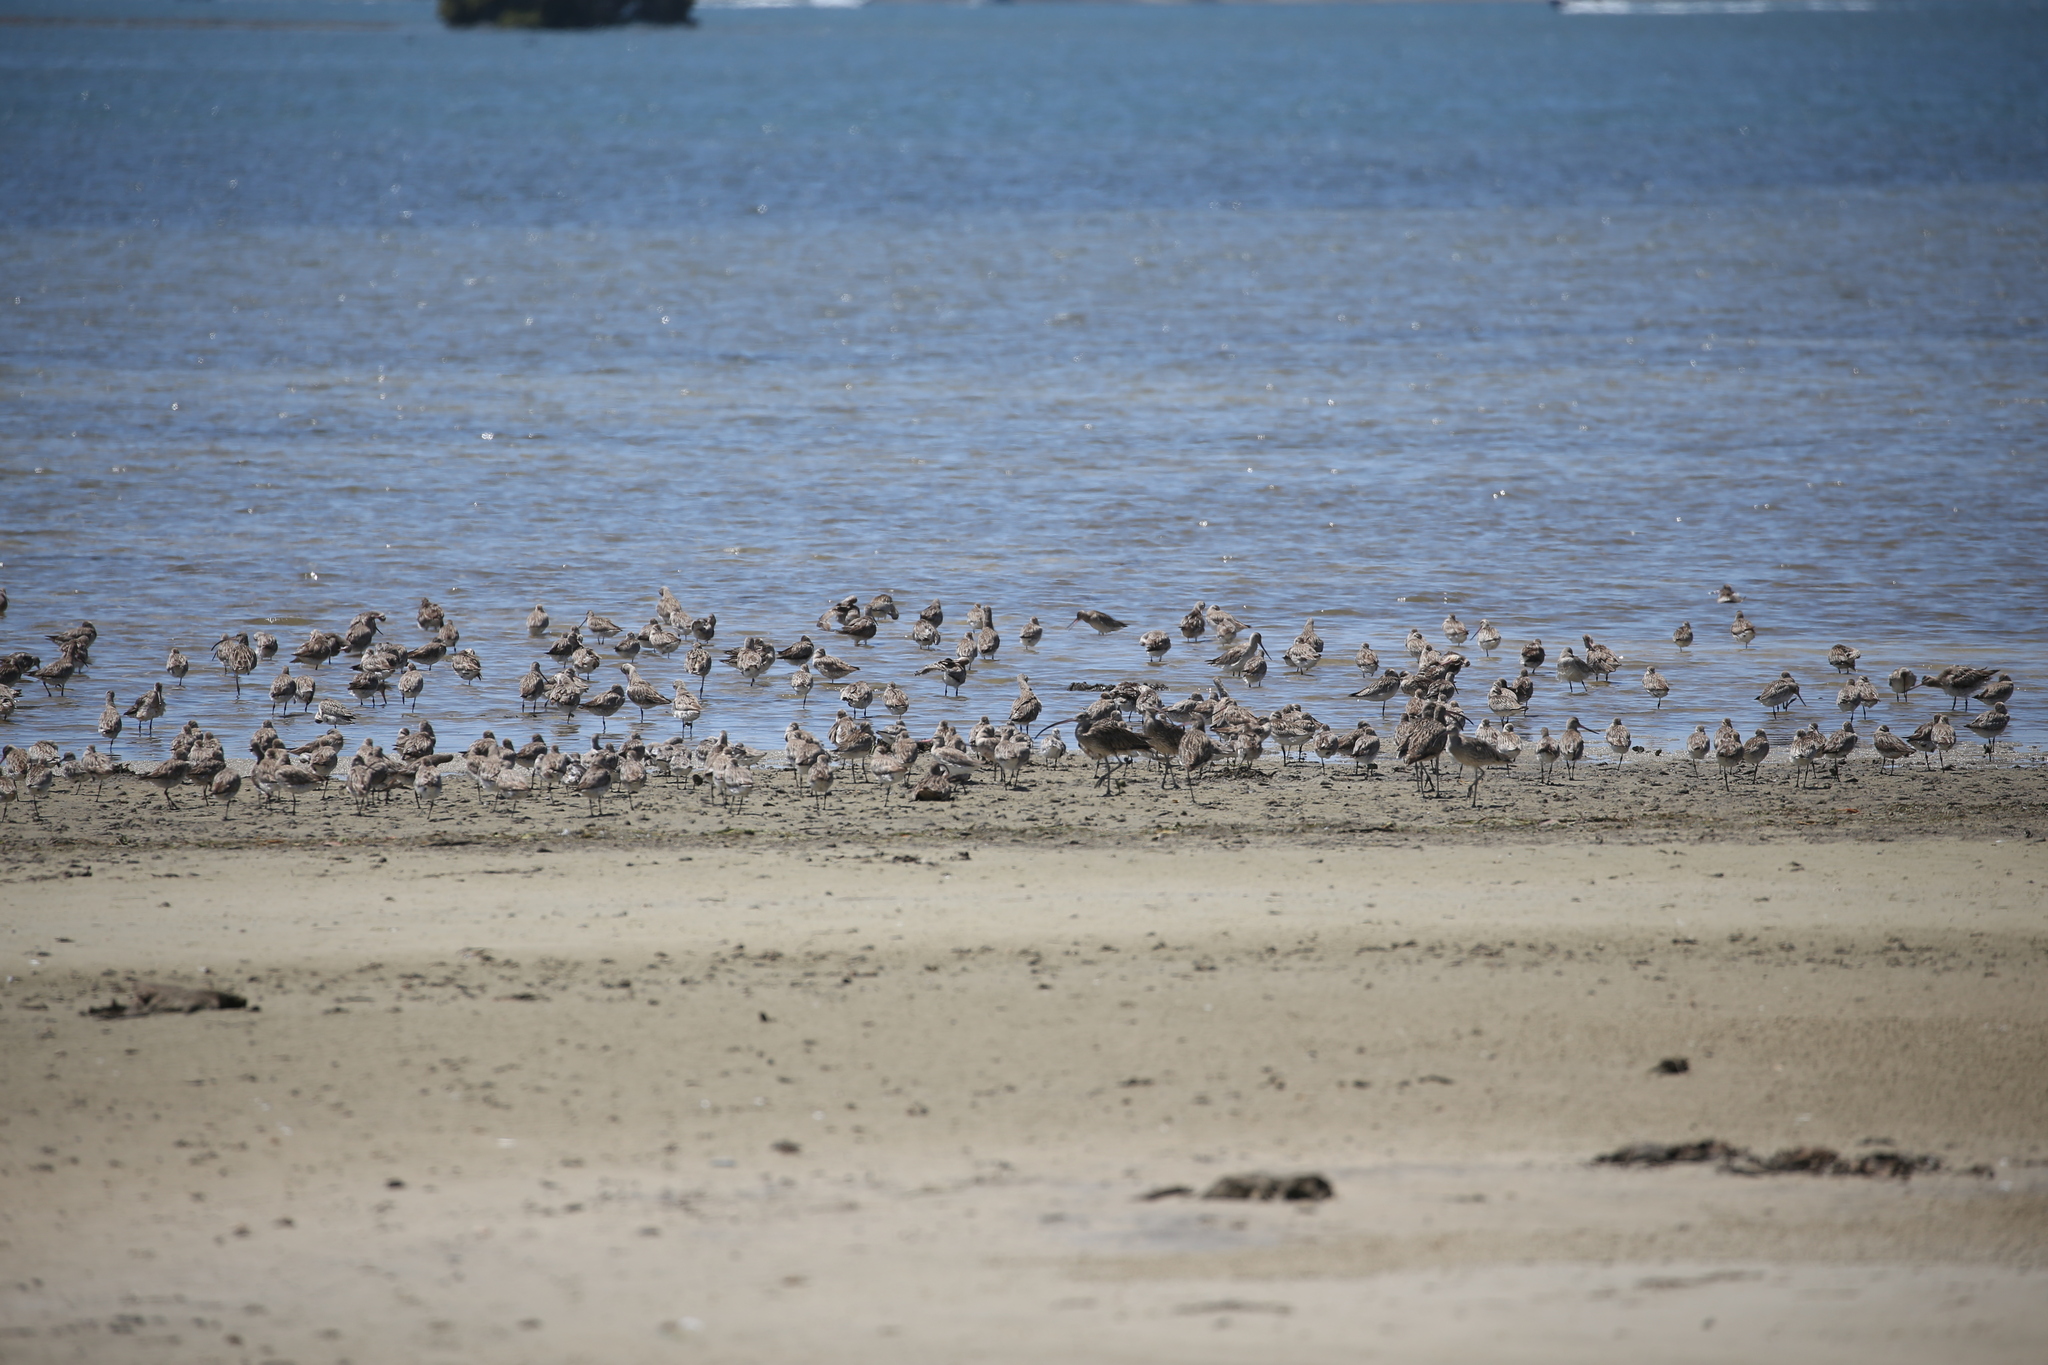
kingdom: Animalia
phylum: Chordata
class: Aves
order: Charadriiformes
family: Scolopacidae
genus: Numenius
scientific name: Numenius madagascariensis
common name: Far eastern curlew
